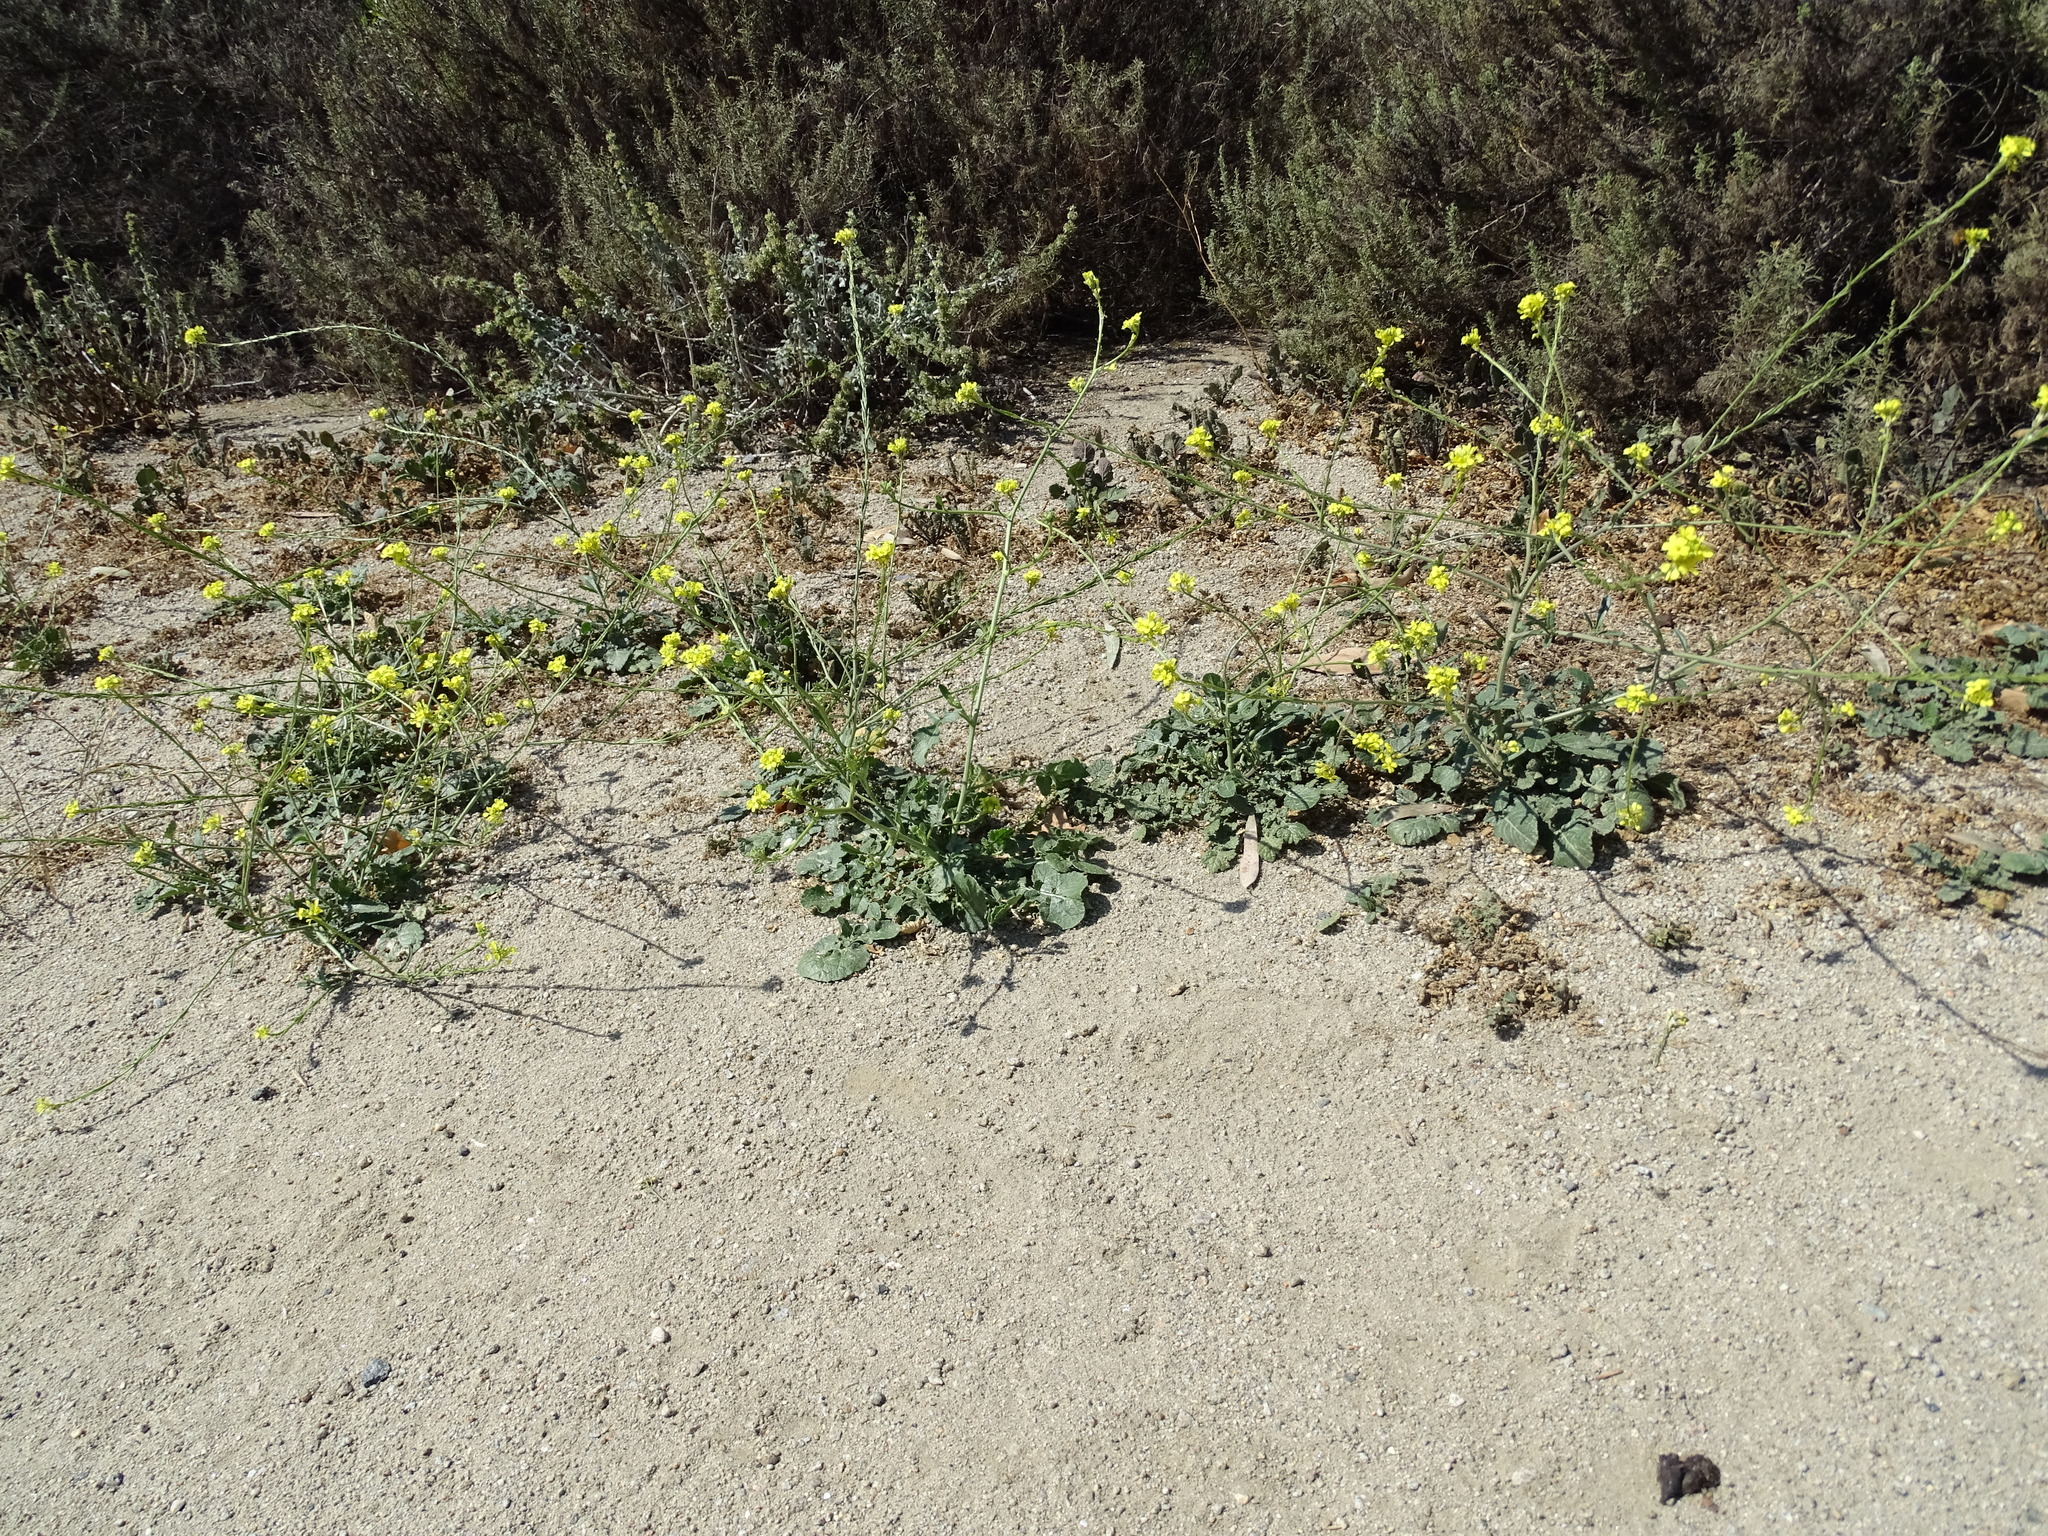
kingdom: Plantae
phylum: Tracheophyta
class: Magnoliopsida
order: Brassicales
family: Brassicaceae
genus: Hirschfeldia
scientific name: Hirschfeldia incana
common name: Hoary mustard
